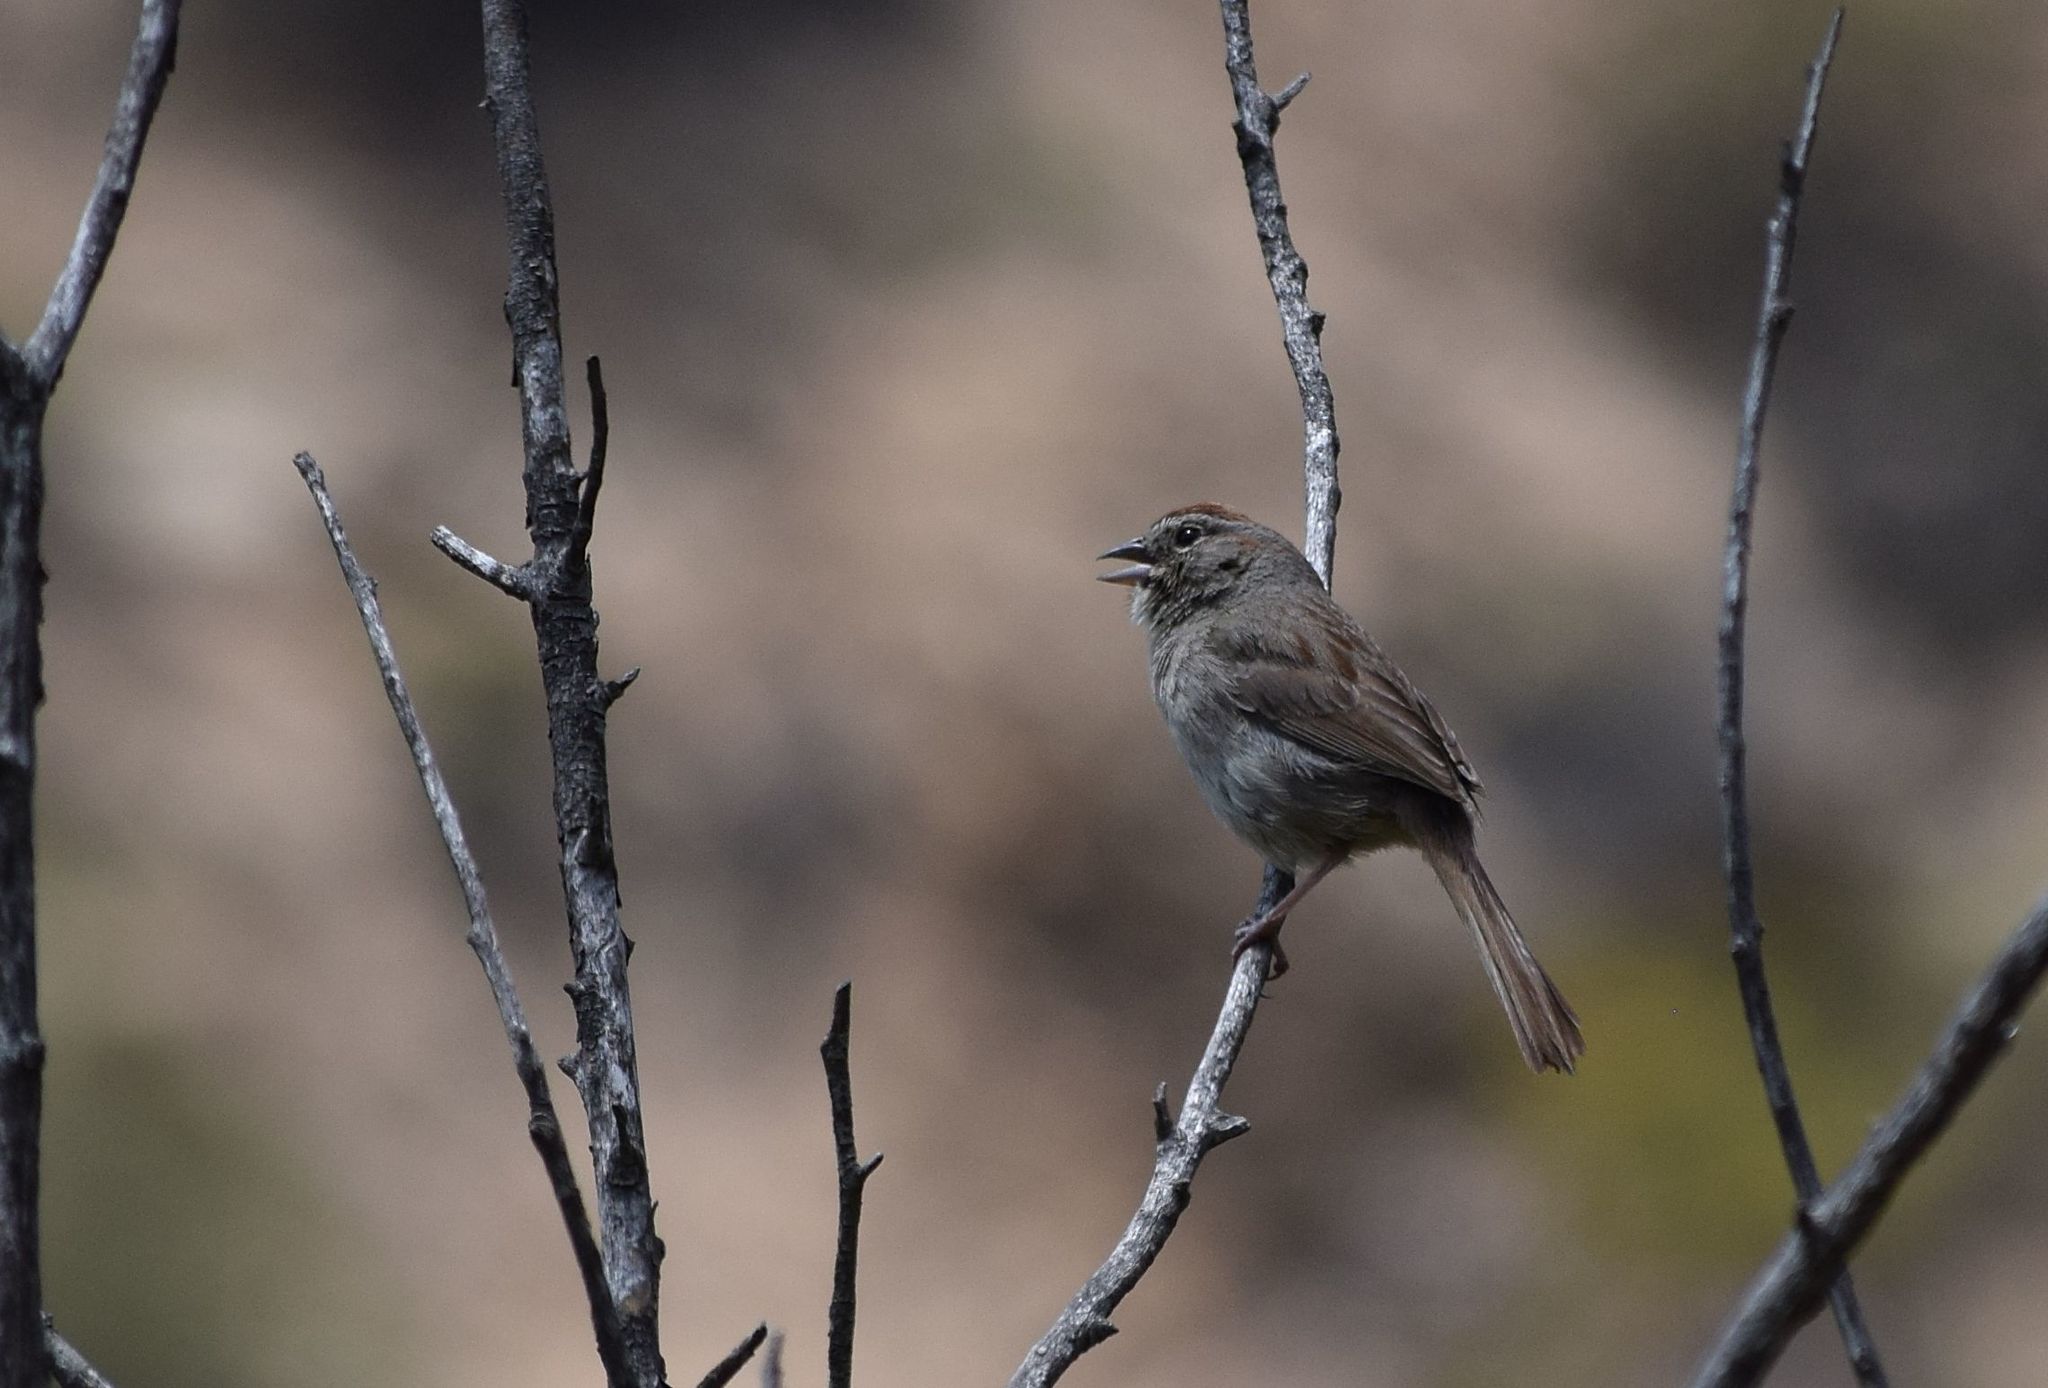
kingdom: Animalia
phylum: Chordata
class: Aves
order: Passeriformes
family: Passerellidae
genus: Aimophila
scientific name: Aimophila ruficeps
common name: Rufous-crowned sparrow
